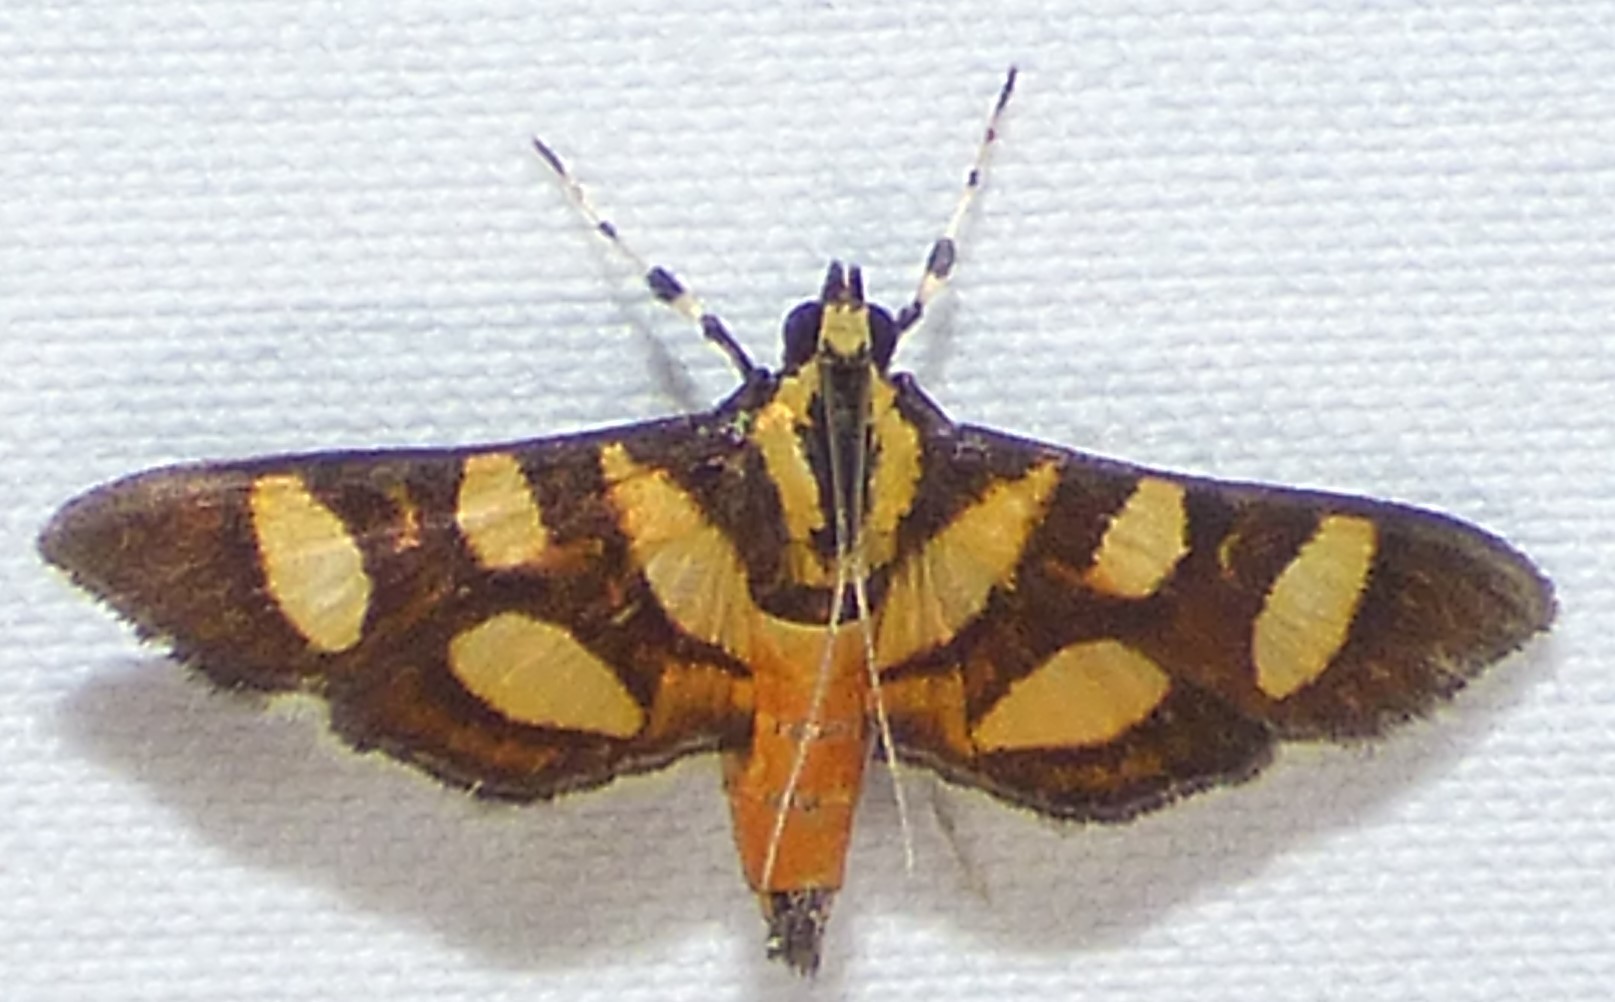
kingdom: Animalia
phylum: Arthropoda
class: Insecta
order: Lepidoptera
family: Crambidae
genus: Syngamia
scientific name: Syngamia florella
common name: Orange-spotted flower moth
